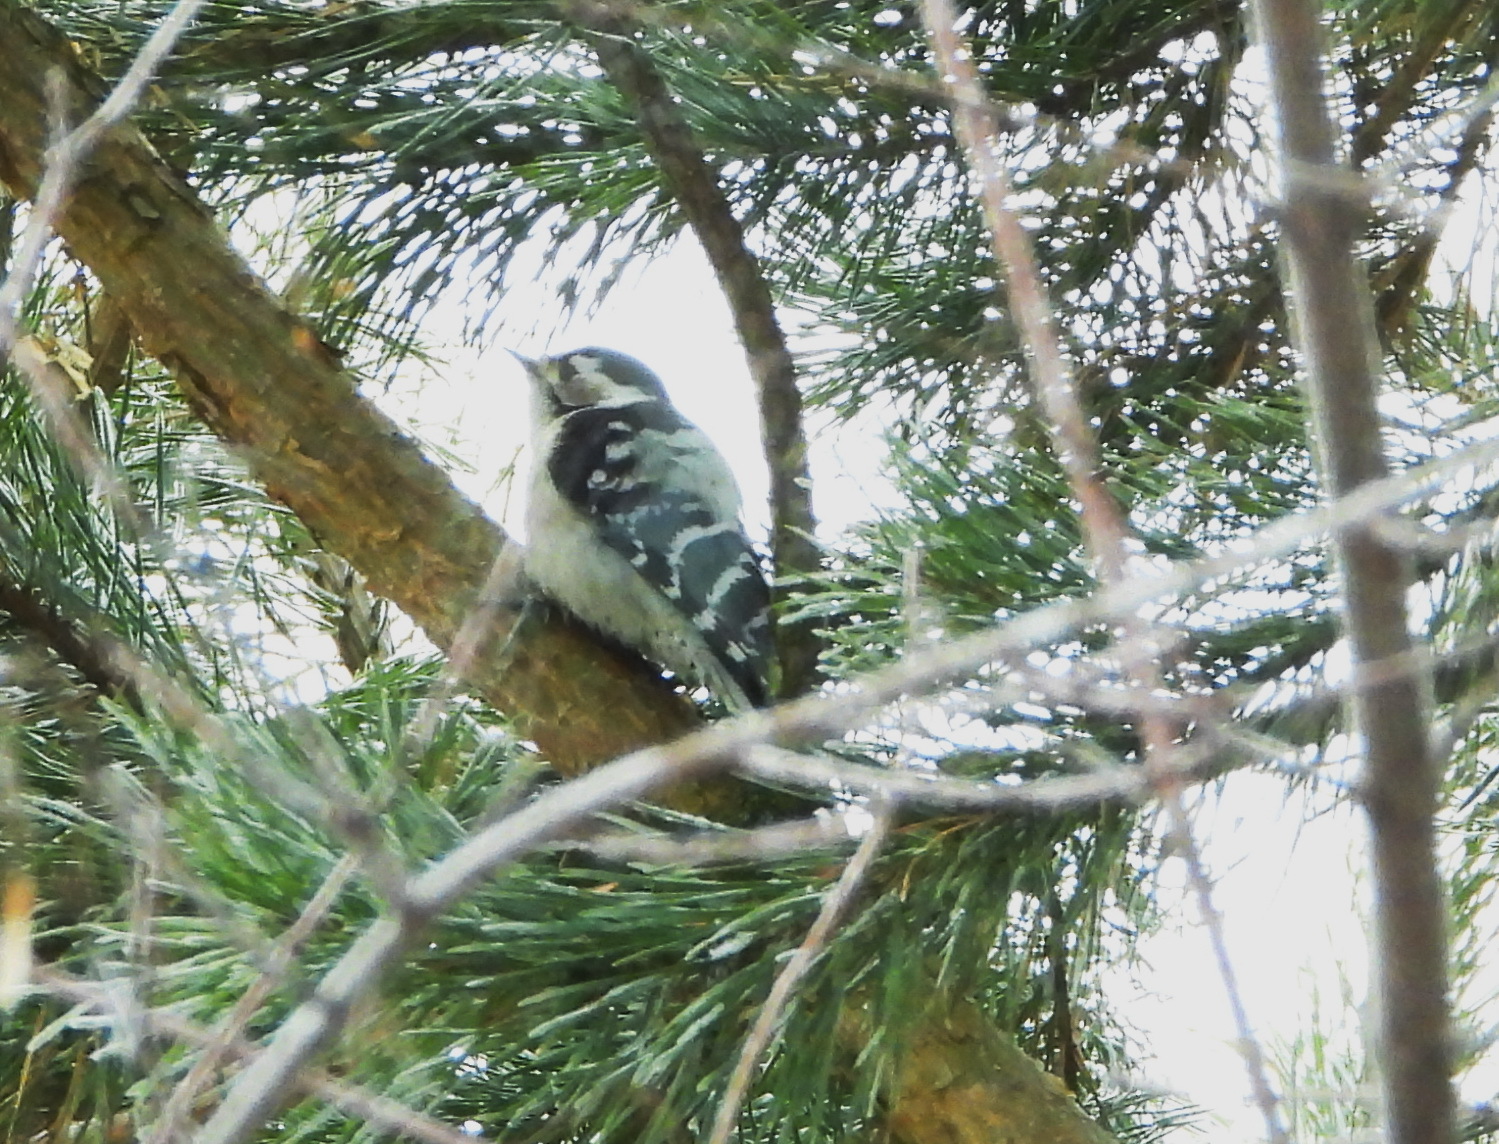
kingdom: Animalia
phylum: Chordata
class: Aves
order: Piciformes
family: Picidae
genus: Dryobates
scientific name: Dryobates minor
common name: Lesser spotted woodpecker
